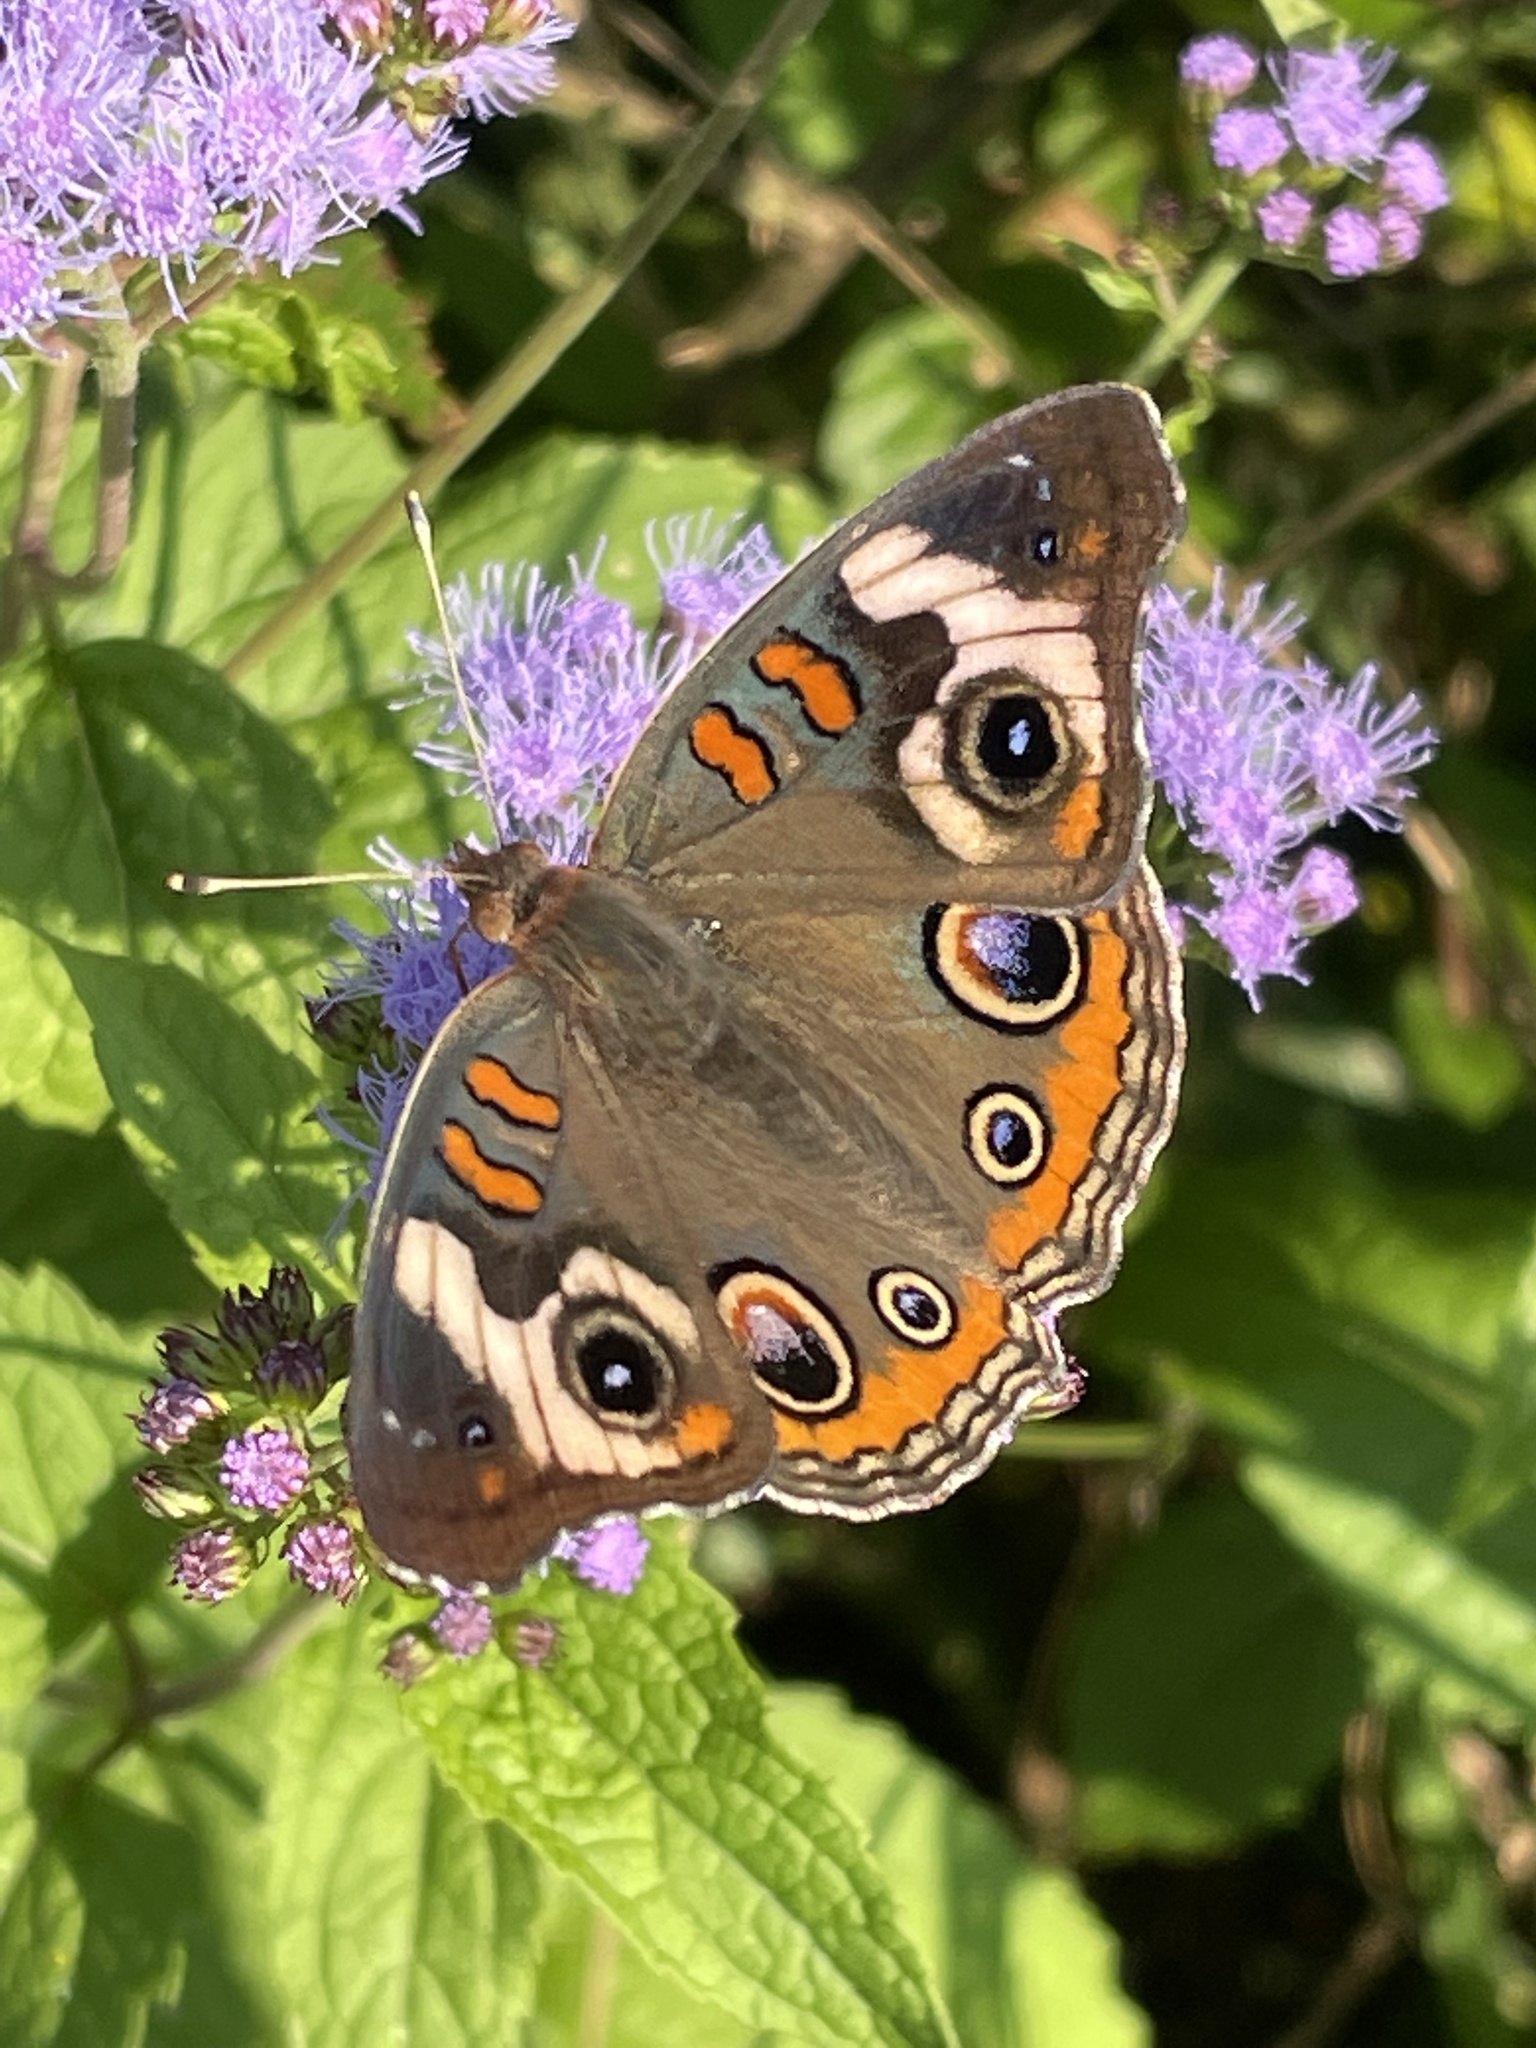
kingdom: Animalia
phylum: Arthropoda
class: Insecta
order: Lepidoptera
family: Nymphalidae
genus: Junonia
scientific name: Junonia coenia
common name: Common buckeye
